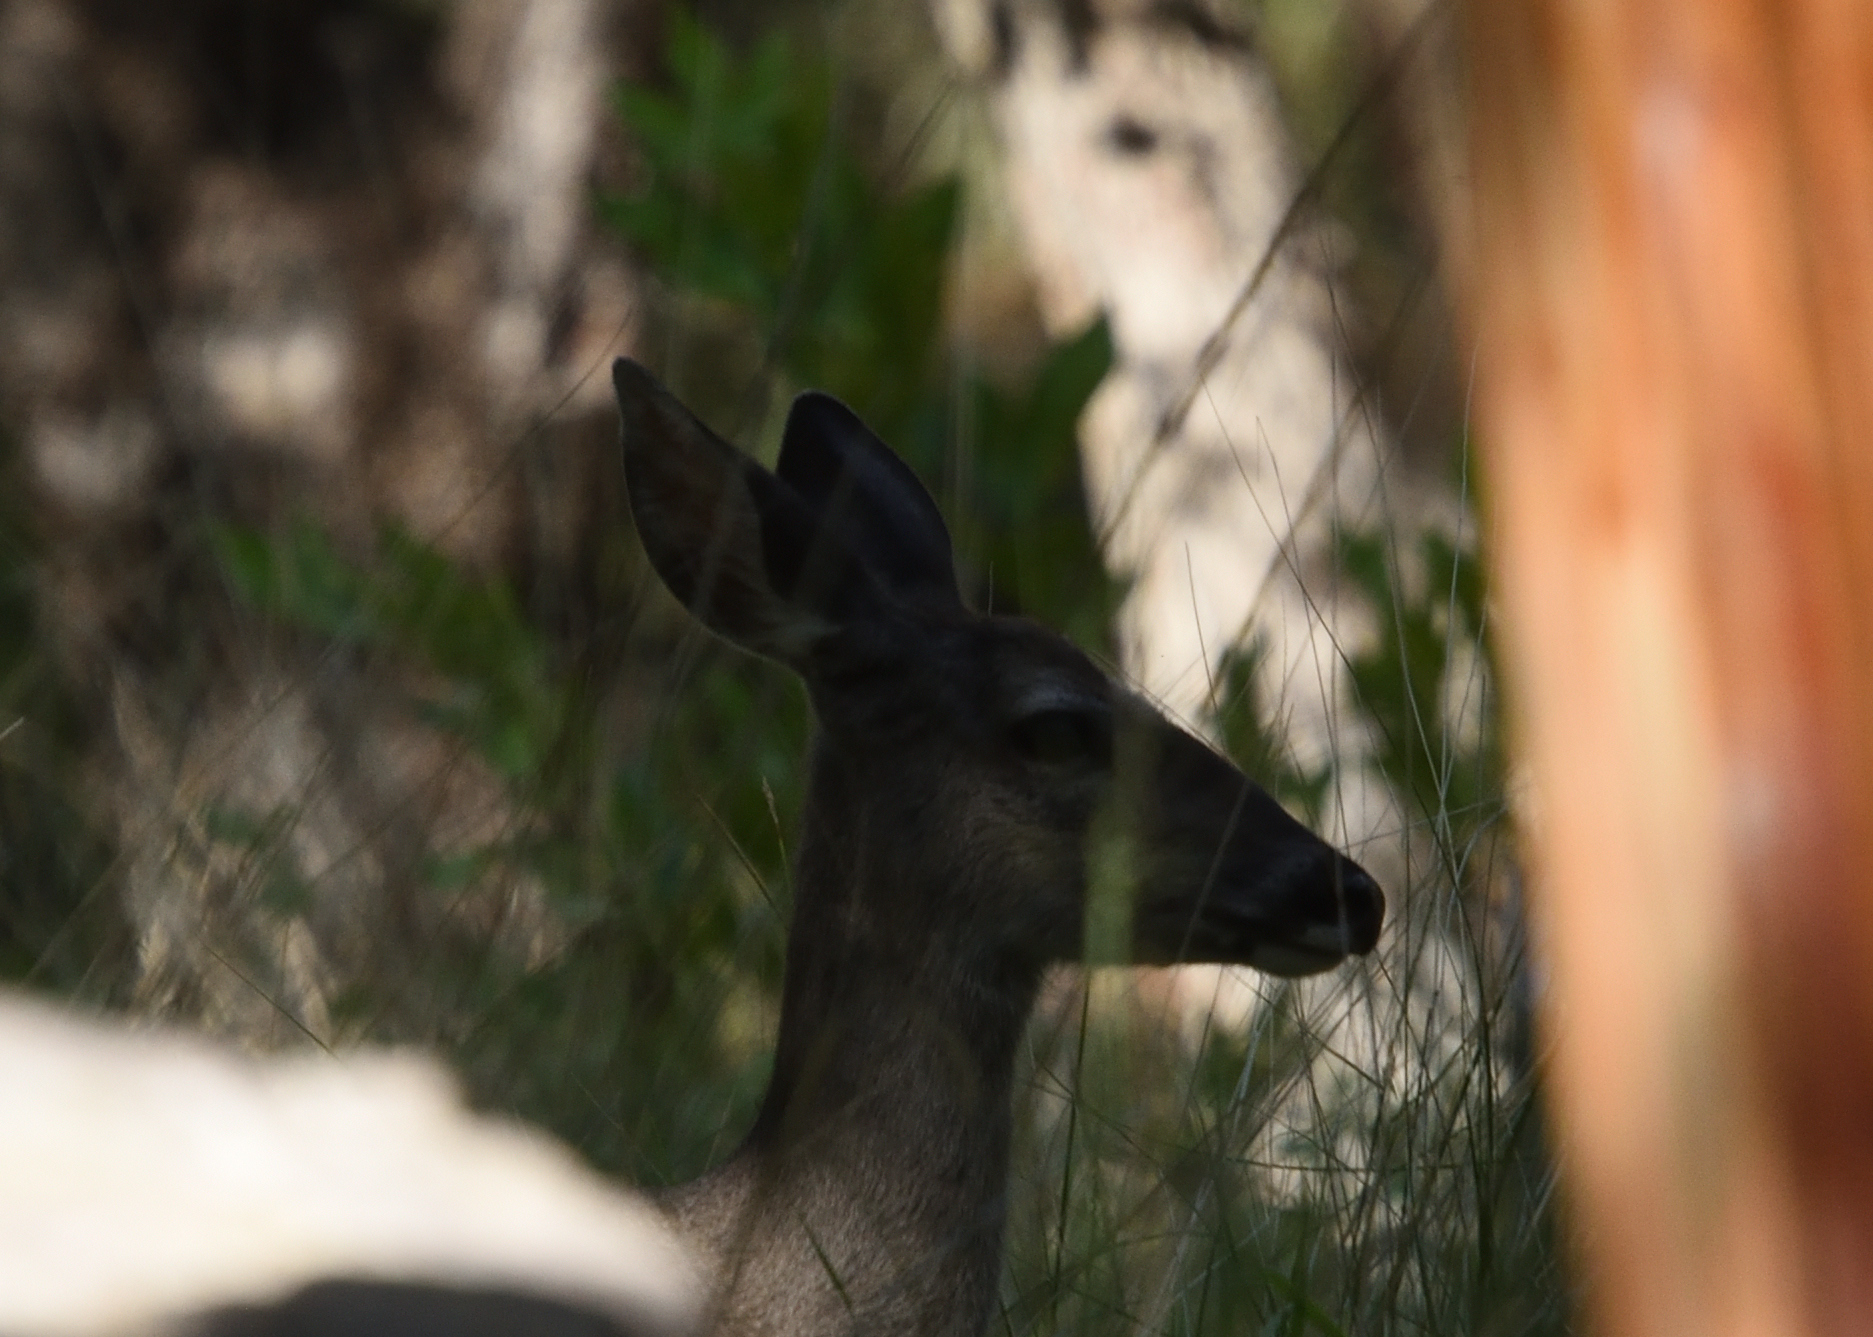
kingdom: Animalia
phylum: Chordata
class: Mammalia
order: Artiodactyla
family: Cervidae
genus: Odocoileus
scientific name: Odocoileus virginianus
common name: White-tailed deer
